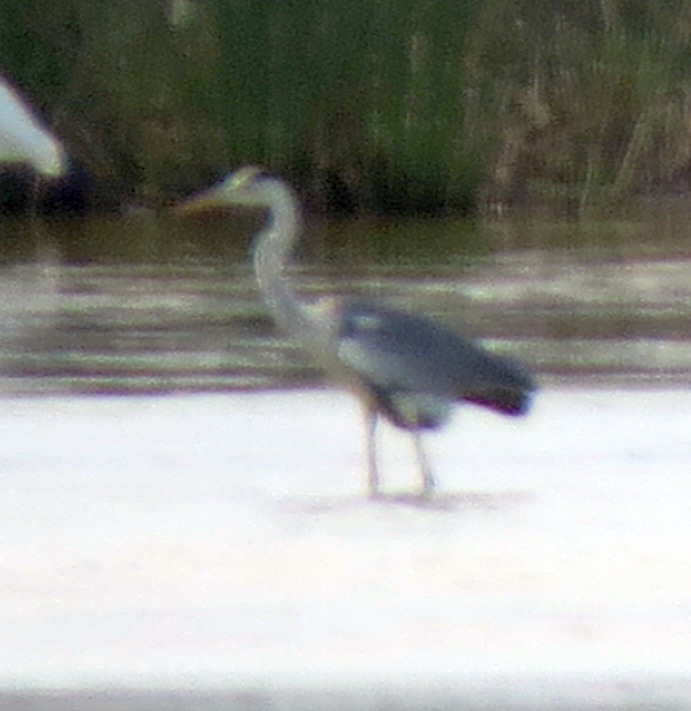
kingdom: Animalia
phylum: Chordata
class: Aves
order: Pelecaniformes
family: Ardeidae
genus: Ardea
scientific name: Ardea cinerea
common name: Grey heron
